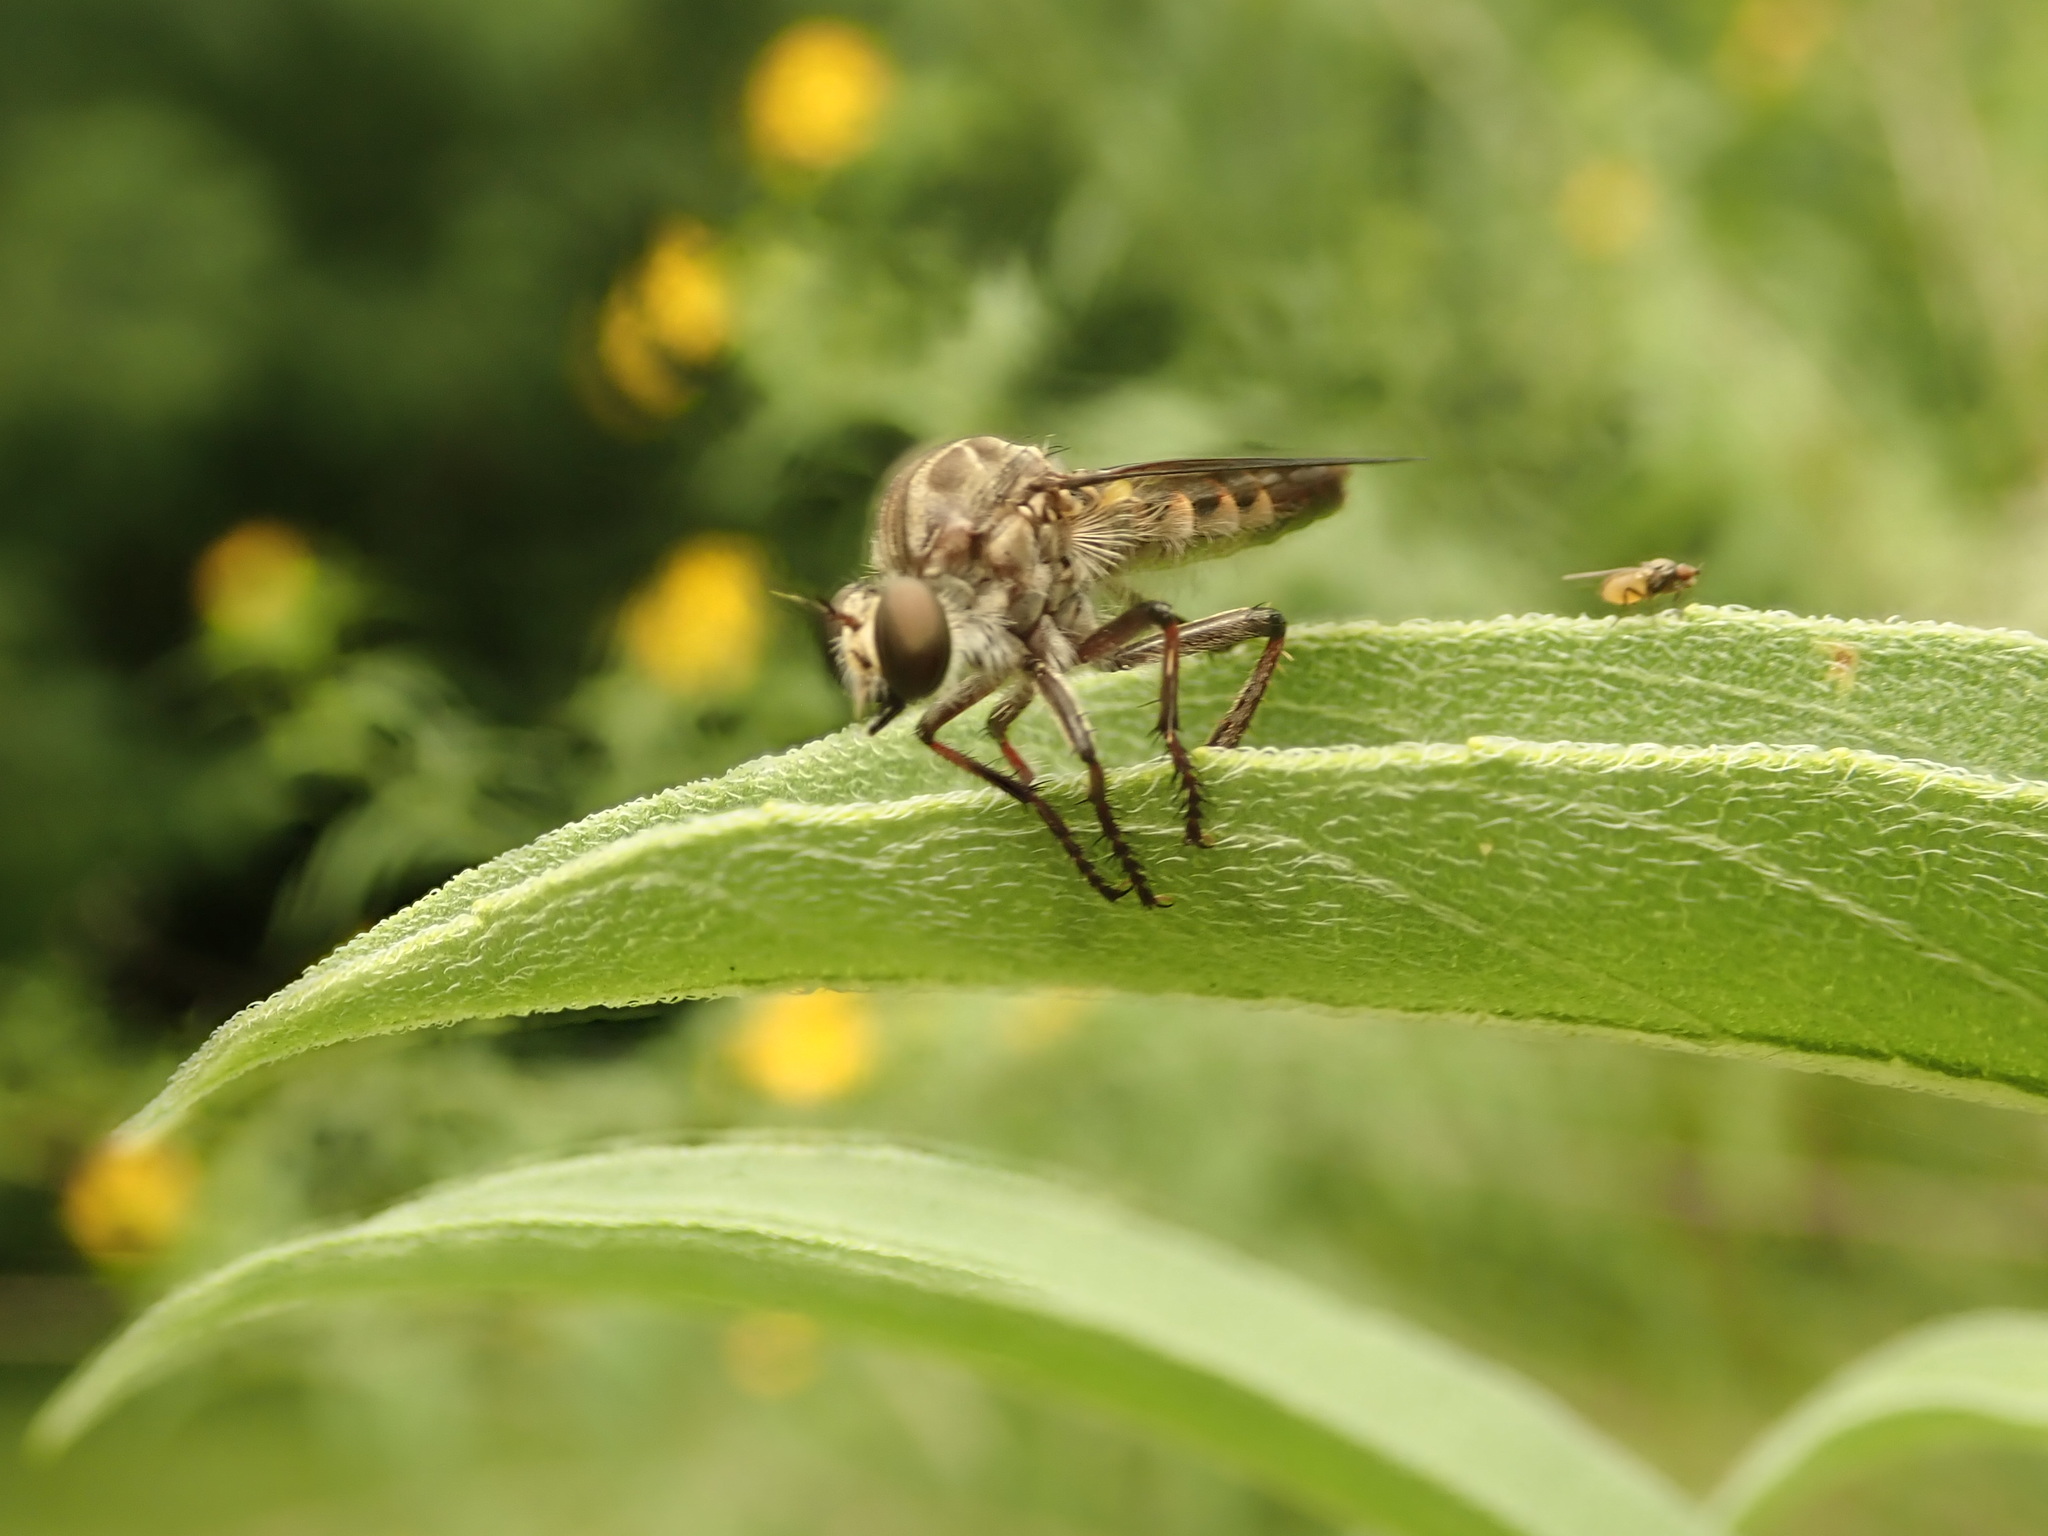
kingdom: Animalia
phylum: Arthropoda
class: Insecta
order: Diptera
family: Asilidae
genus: Heteropogon
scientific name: Heteropogon macerinus
